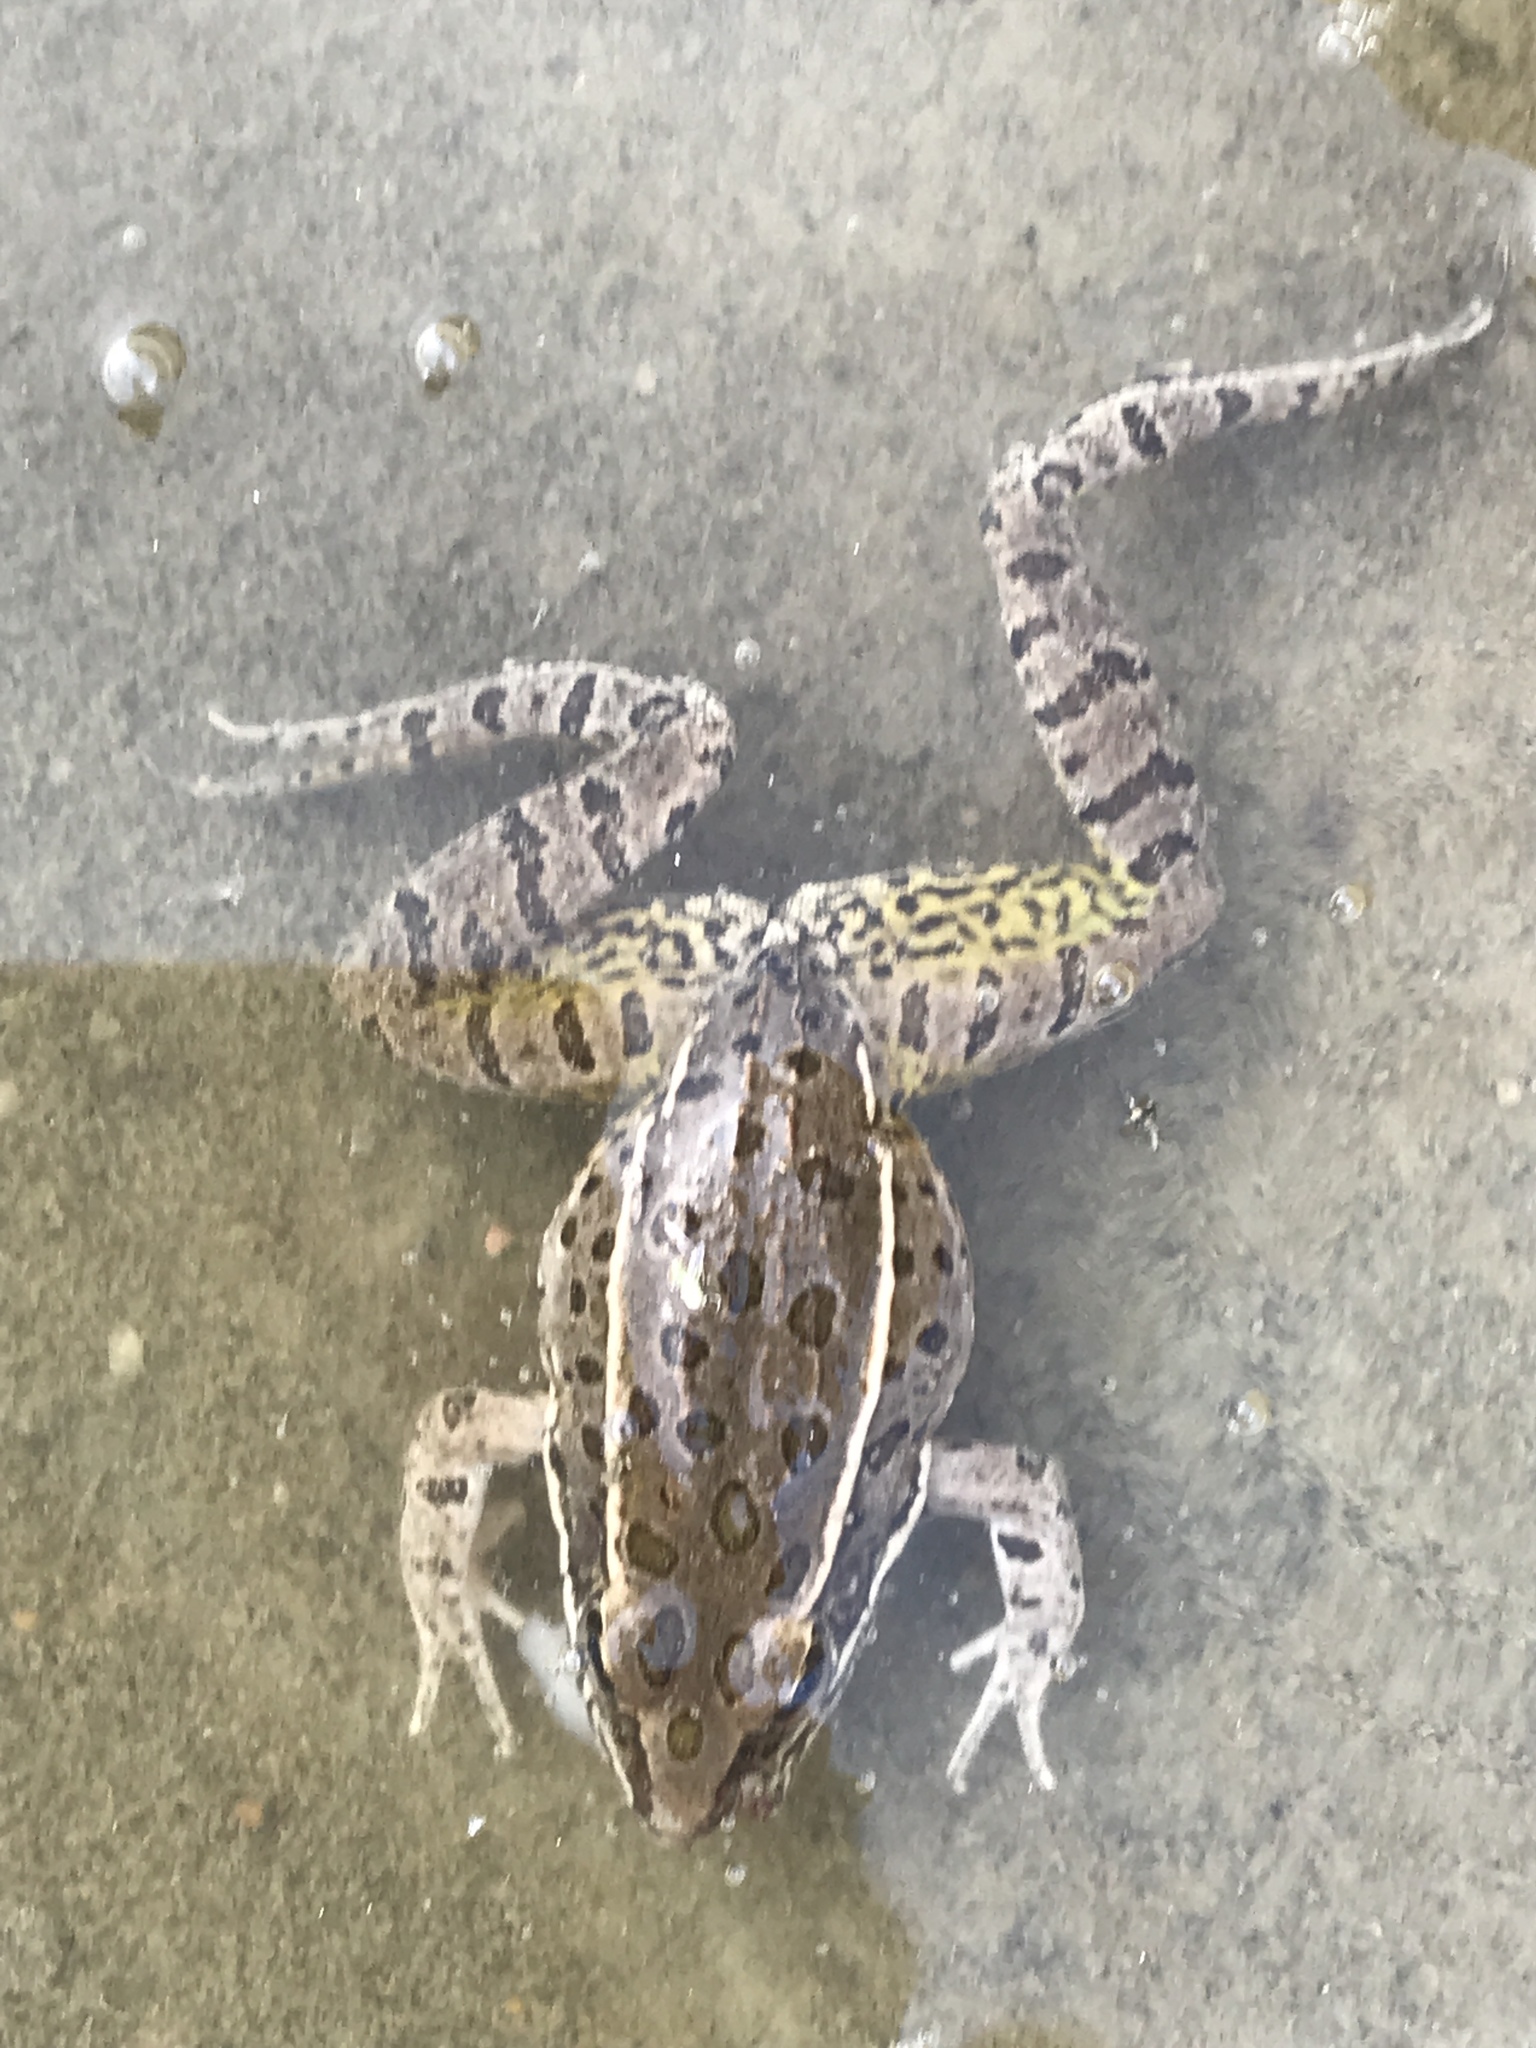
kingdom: Animalia
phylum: Chordata
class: Amphibia
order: Anura
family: Ranidae
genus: Lithobates
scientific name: Lithobates blairi
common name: Plains leopard frog
